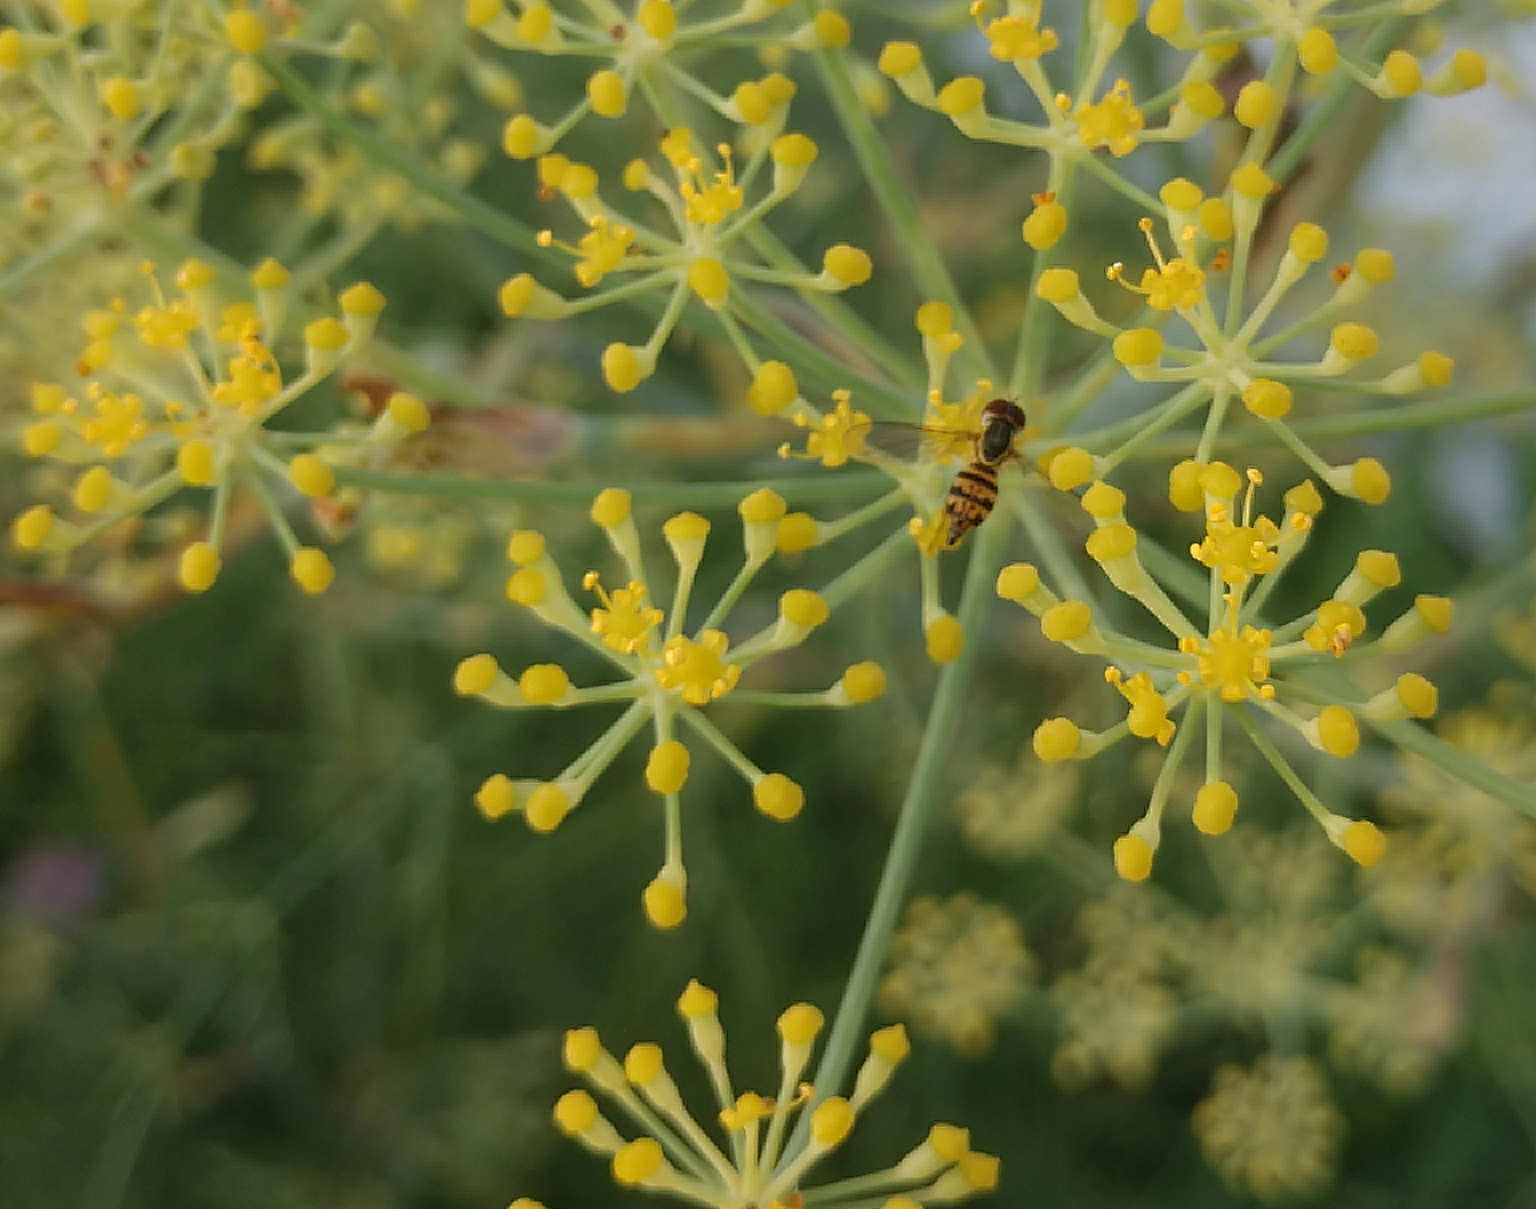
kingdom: Animalia
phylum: Arthropoda
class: Insecta
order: Diptera
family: Syrphidae
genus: Toxomerus
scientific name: Toxomerus geminatus
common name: Eastern calligrapher
